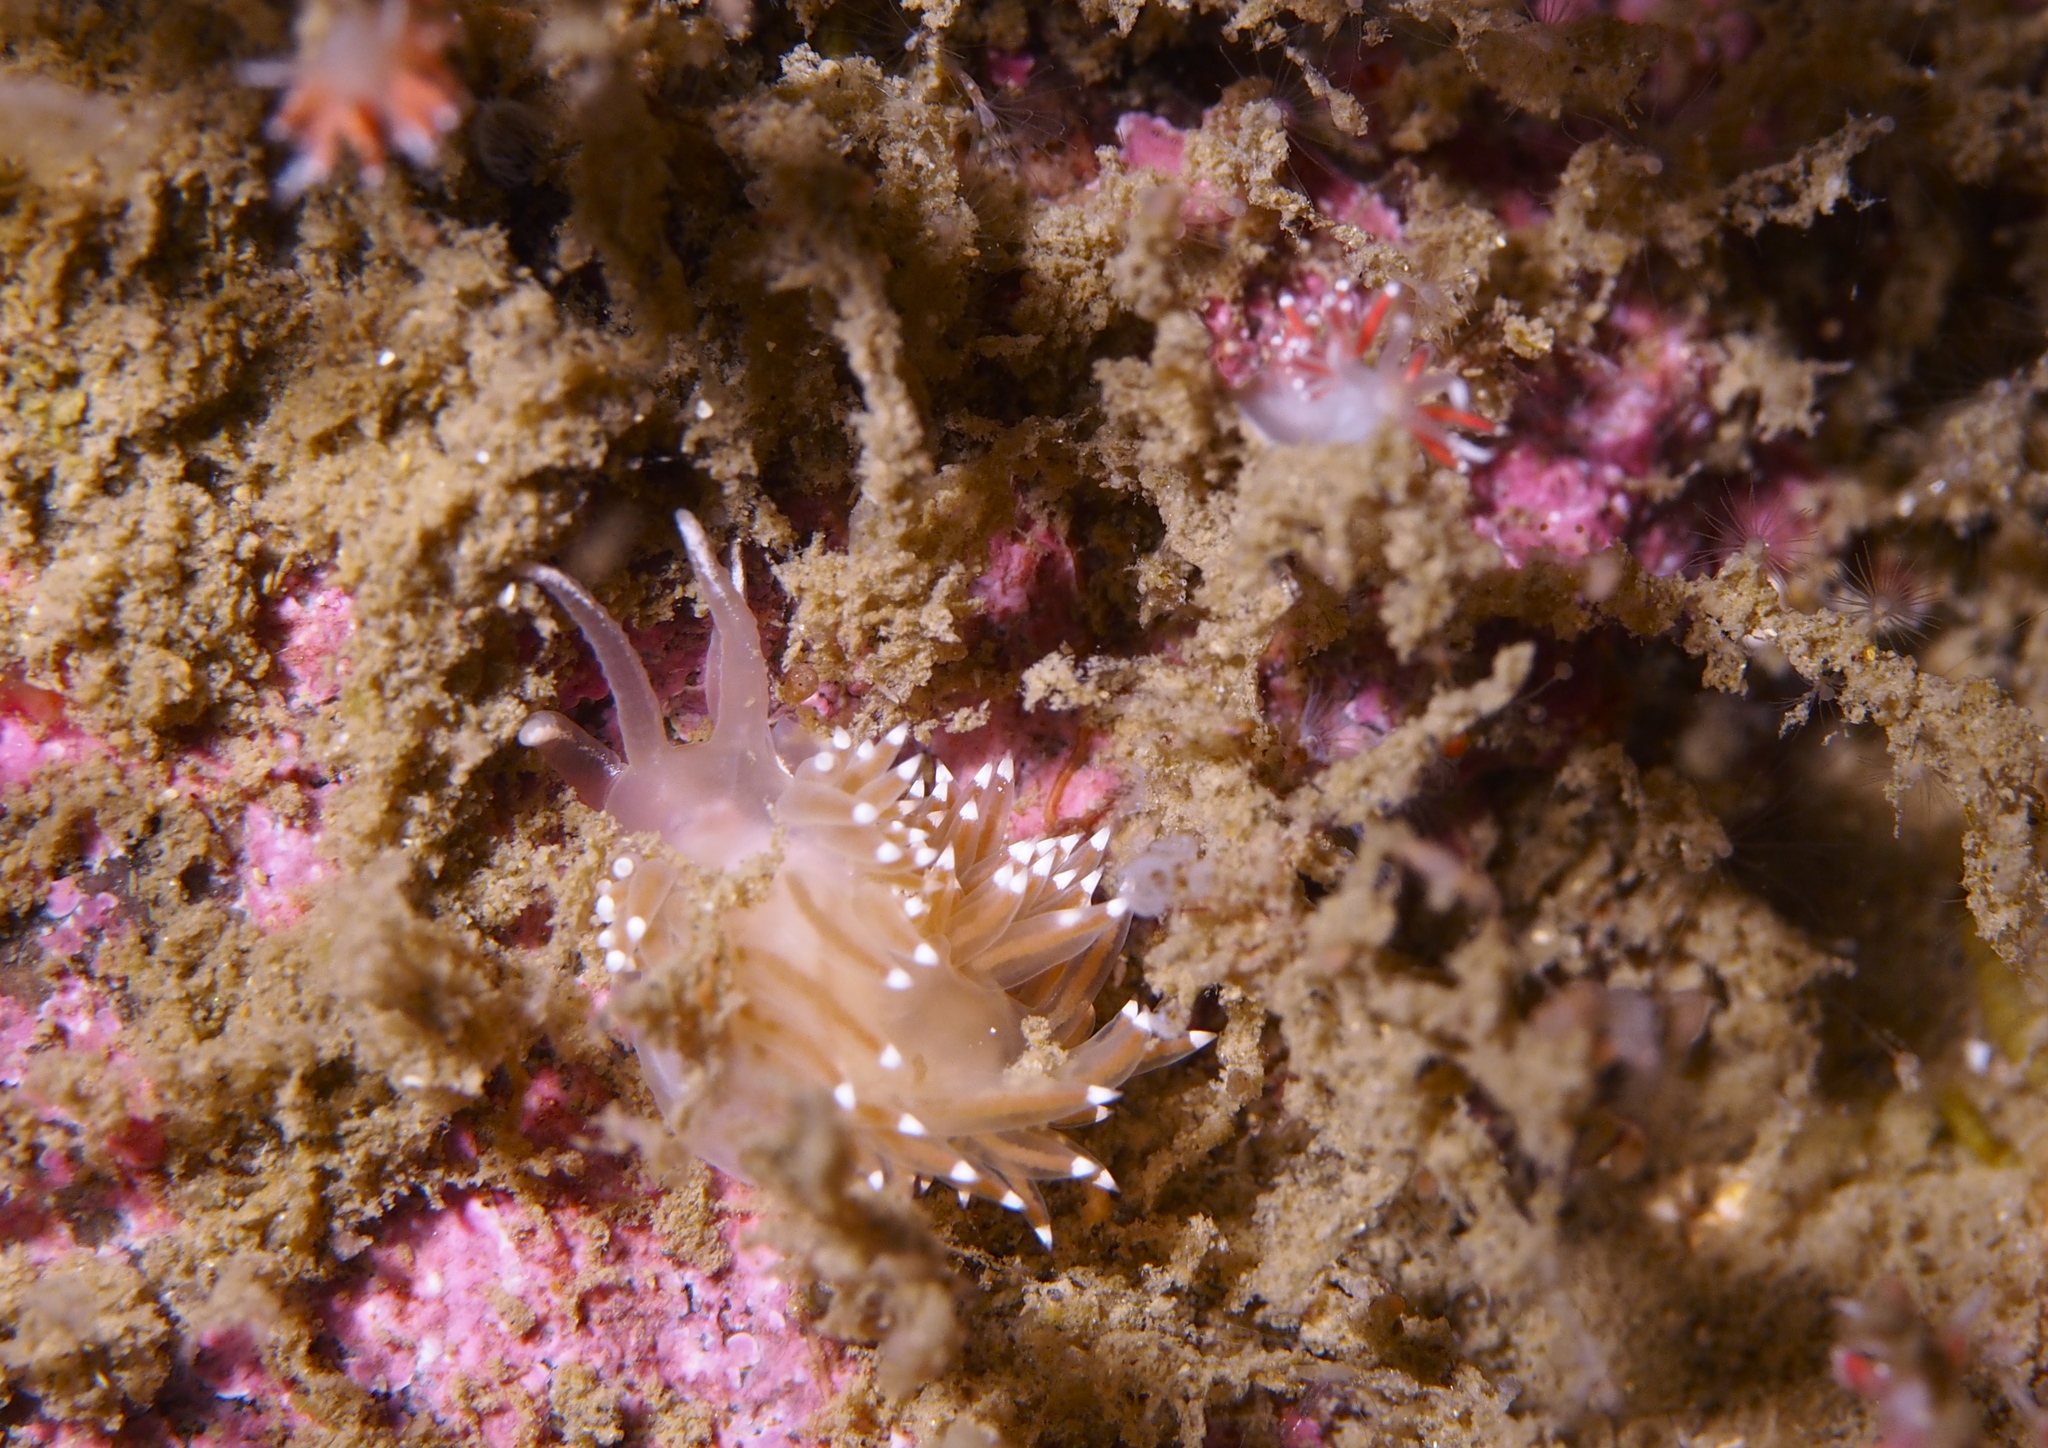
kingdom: Animalia
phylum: Mollusca
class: Gastropoda
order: Nudibranchia
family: Coryphellidae
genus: Coryphella
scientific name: Coryphella verrucosa
